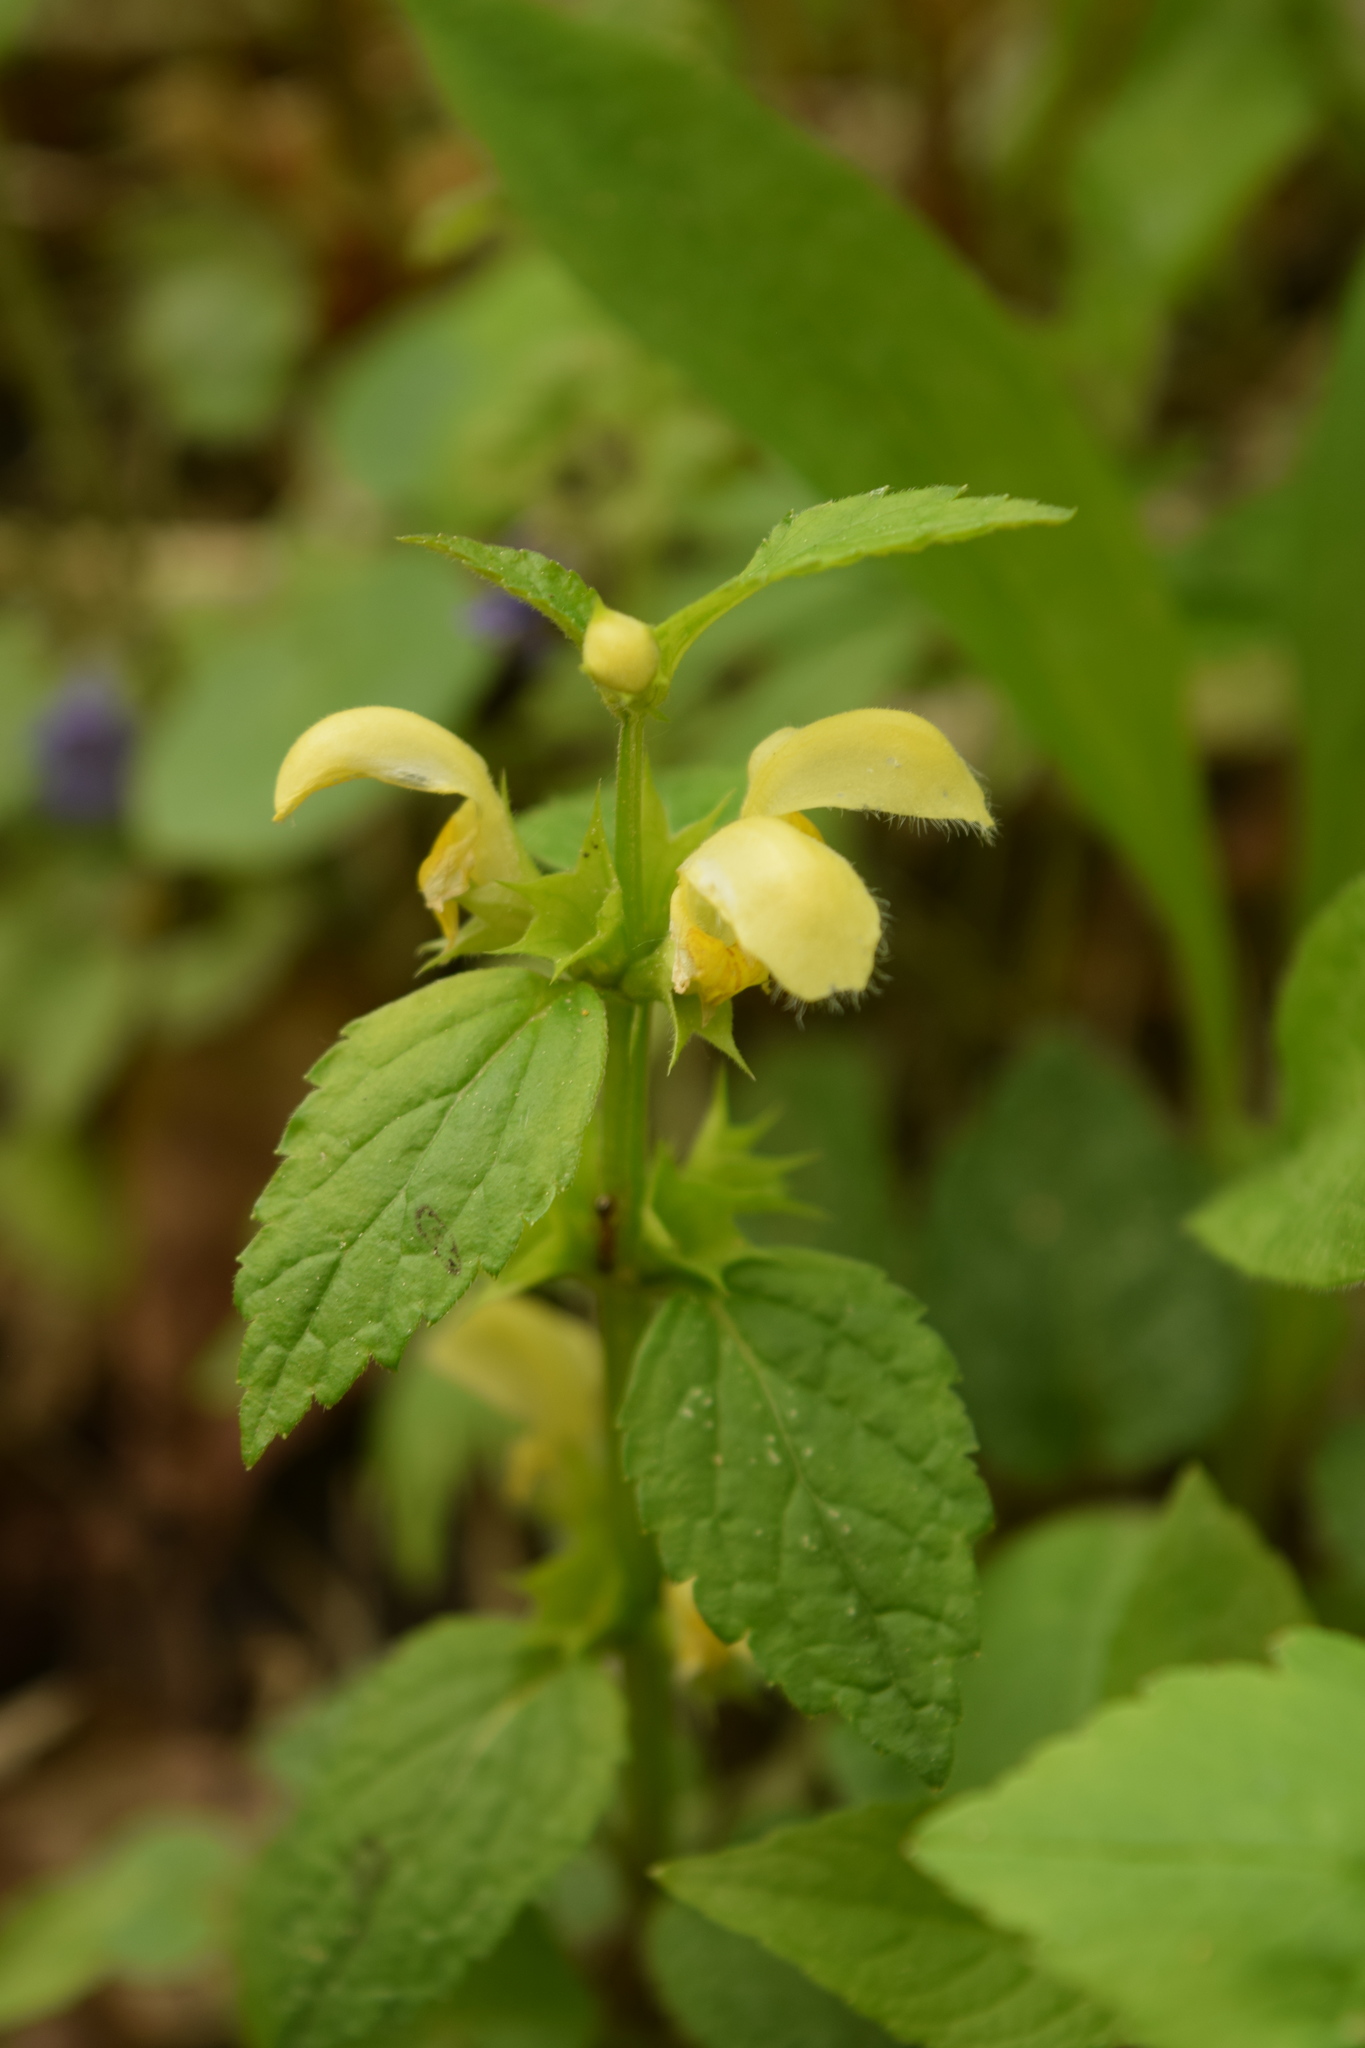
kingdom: Plantae
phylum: Tracheophyta
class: Magnoliopsida
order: Lamiales
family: Lamiaceae
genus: Lamium
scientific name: Lamium galeobdolon
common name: Yellow archangel
